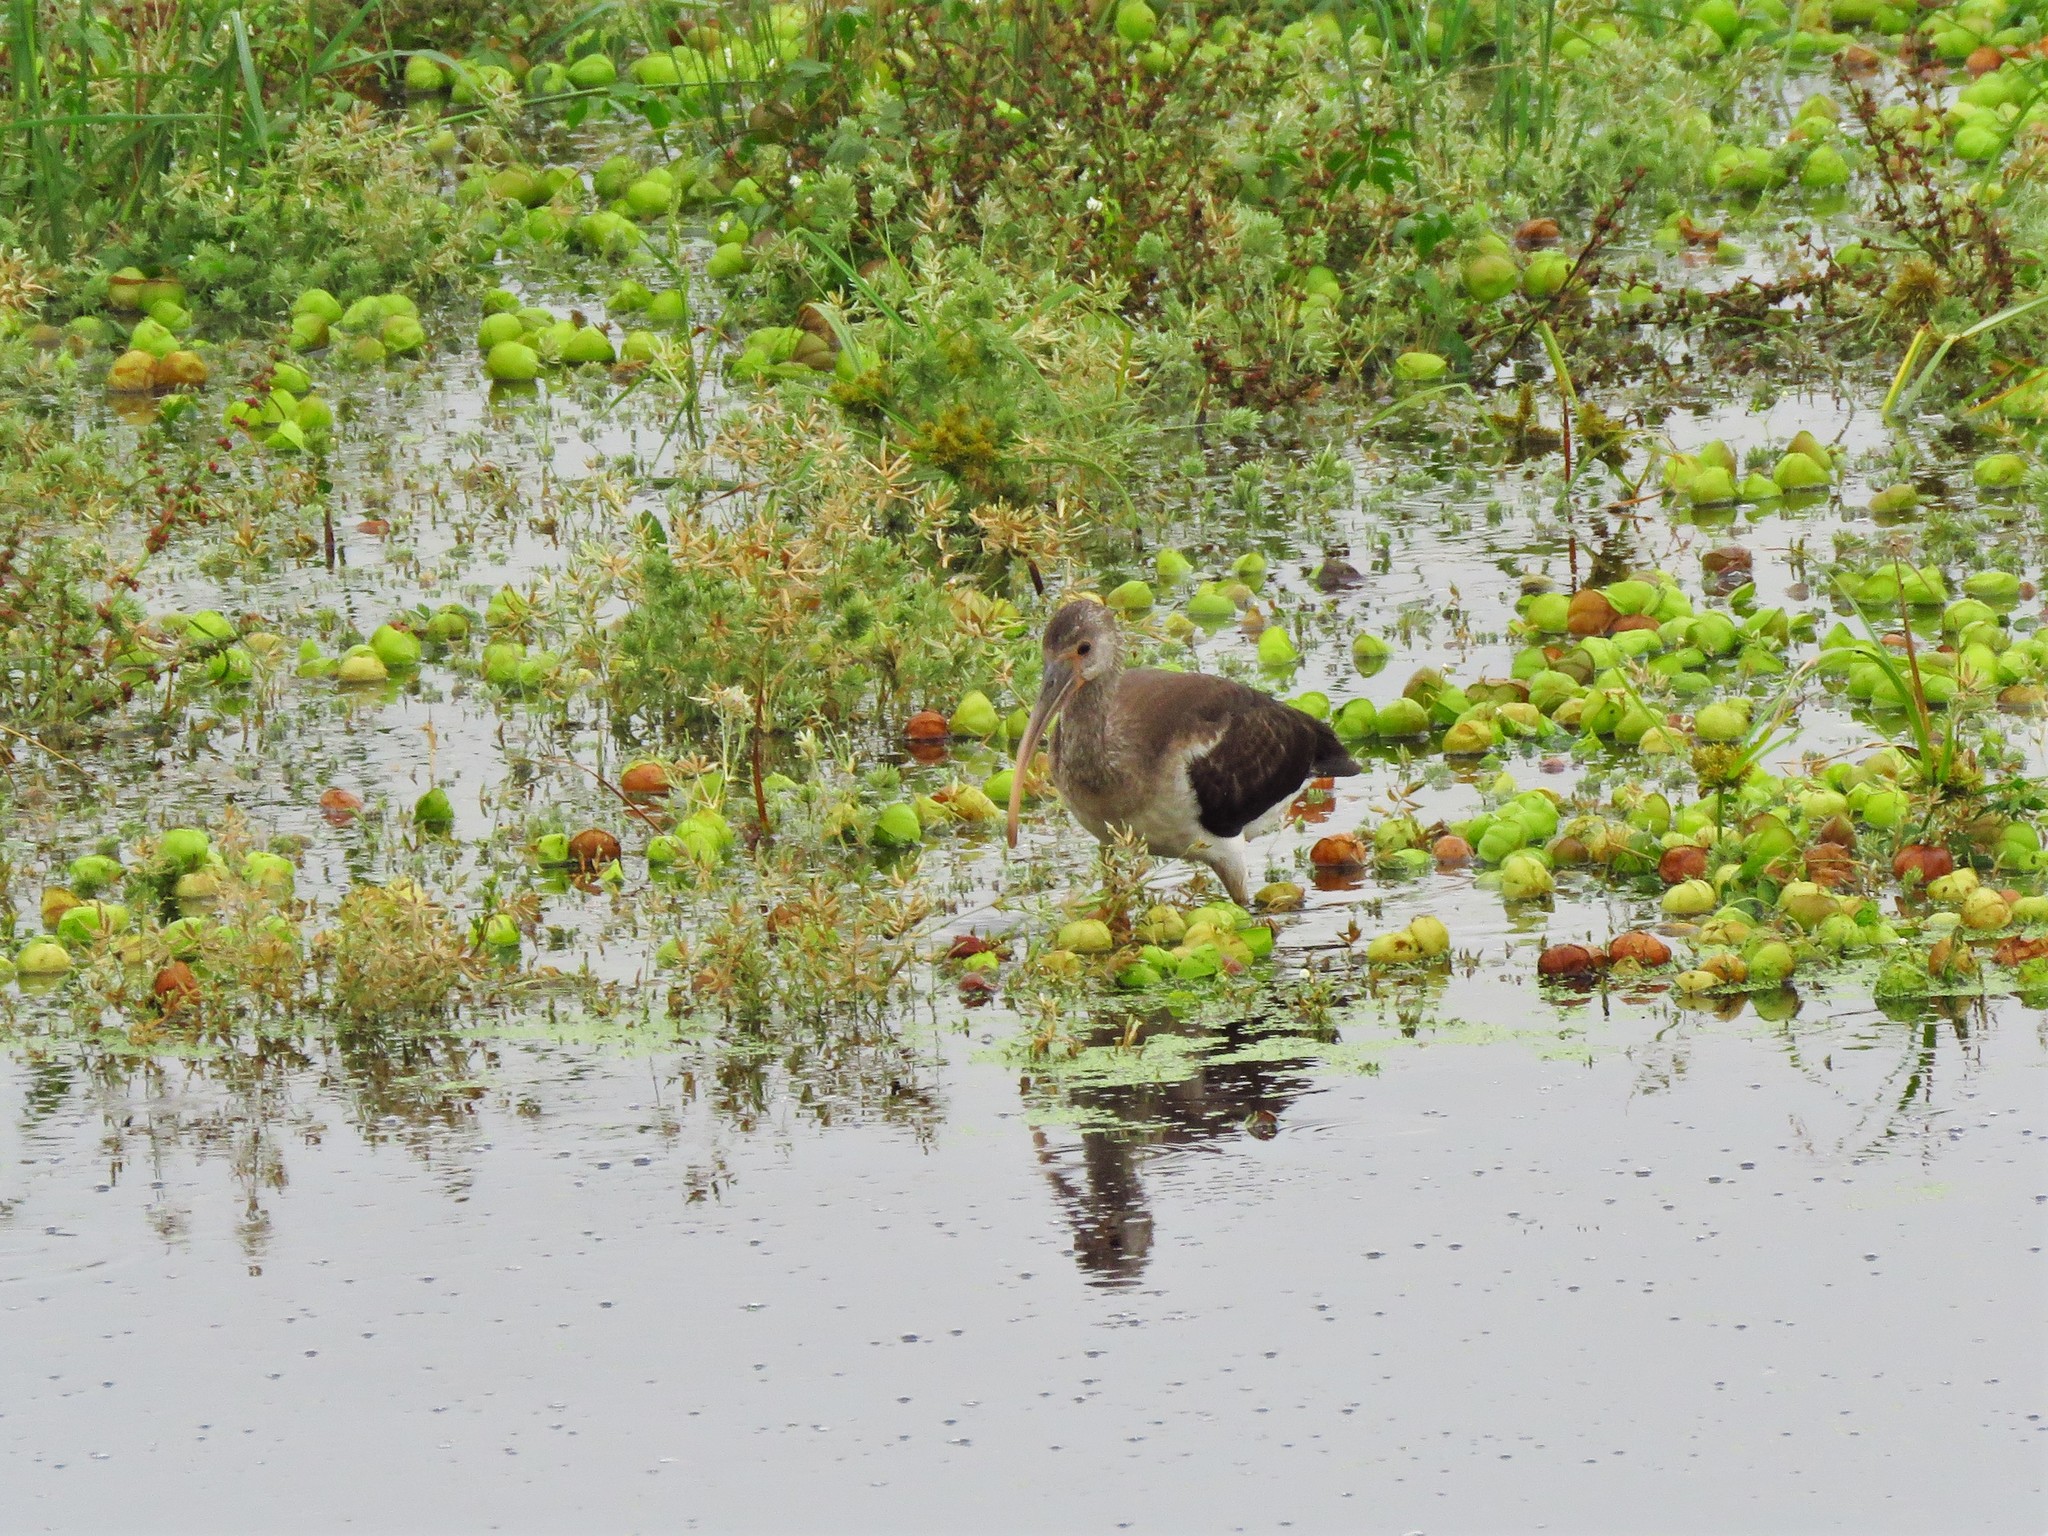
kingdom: Animalia
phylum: Chordata
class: Aves
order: Pelecaniformes
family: Threskiornithidae
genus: Eudocimus
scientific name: Eudocimus albus
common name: White ibis
